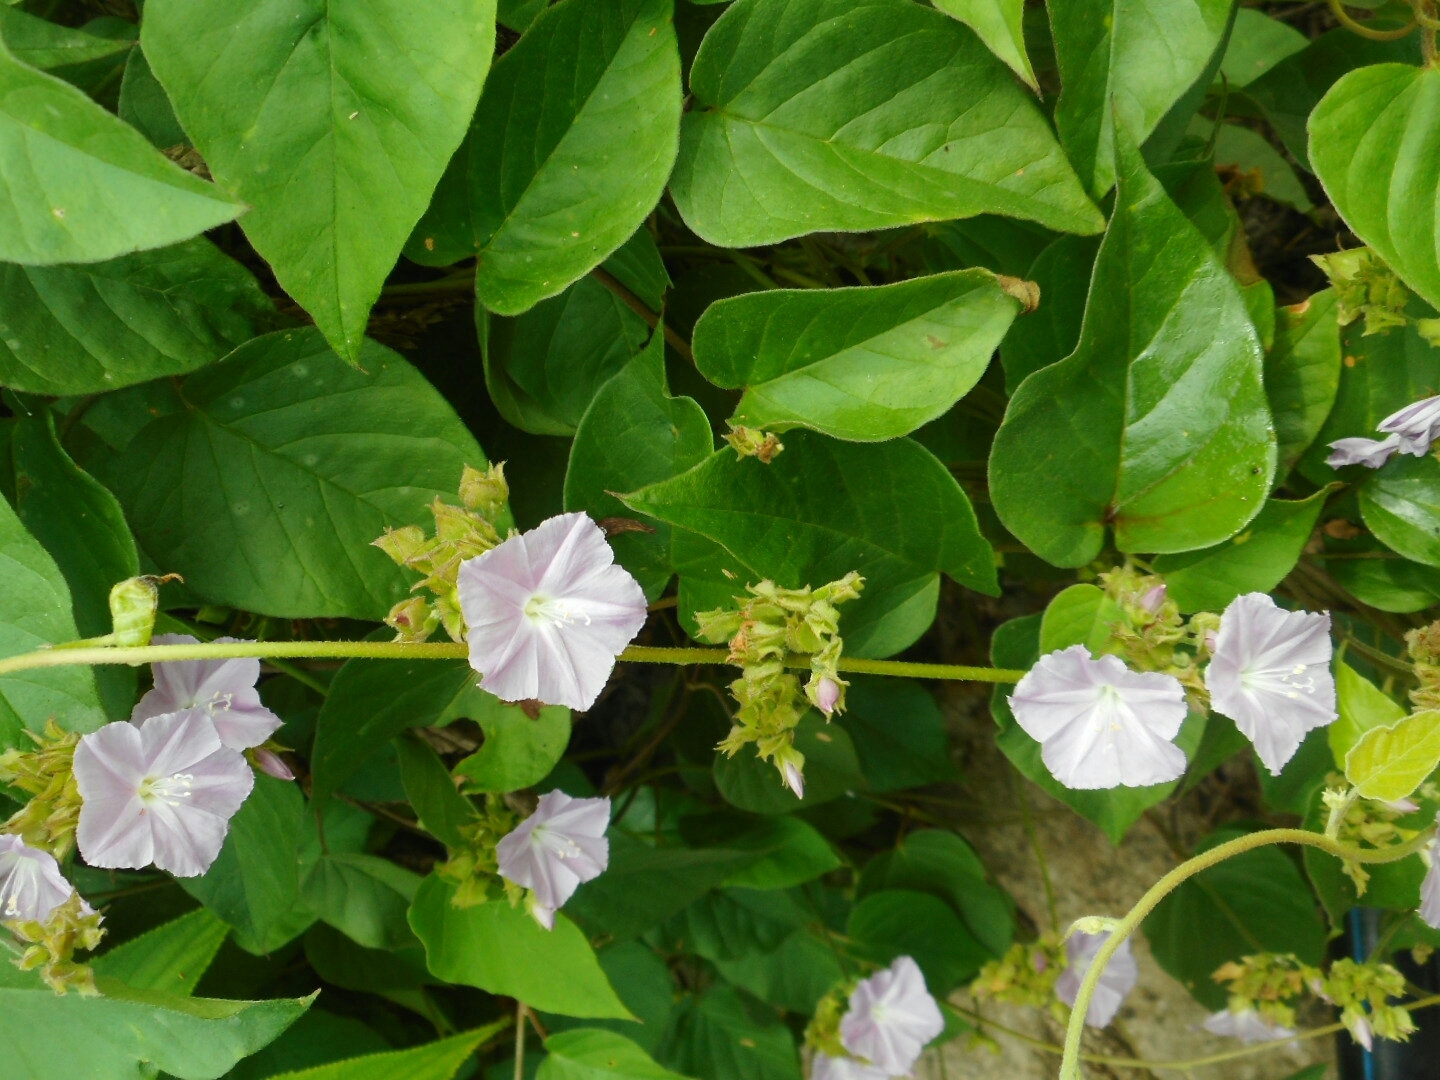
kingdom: Plantae
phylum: Tracheophyta
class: Magnoliopsida
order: Solanales
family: Convolvulaceae
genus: Jacquemontia
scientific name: Jacquemontia paniculata
